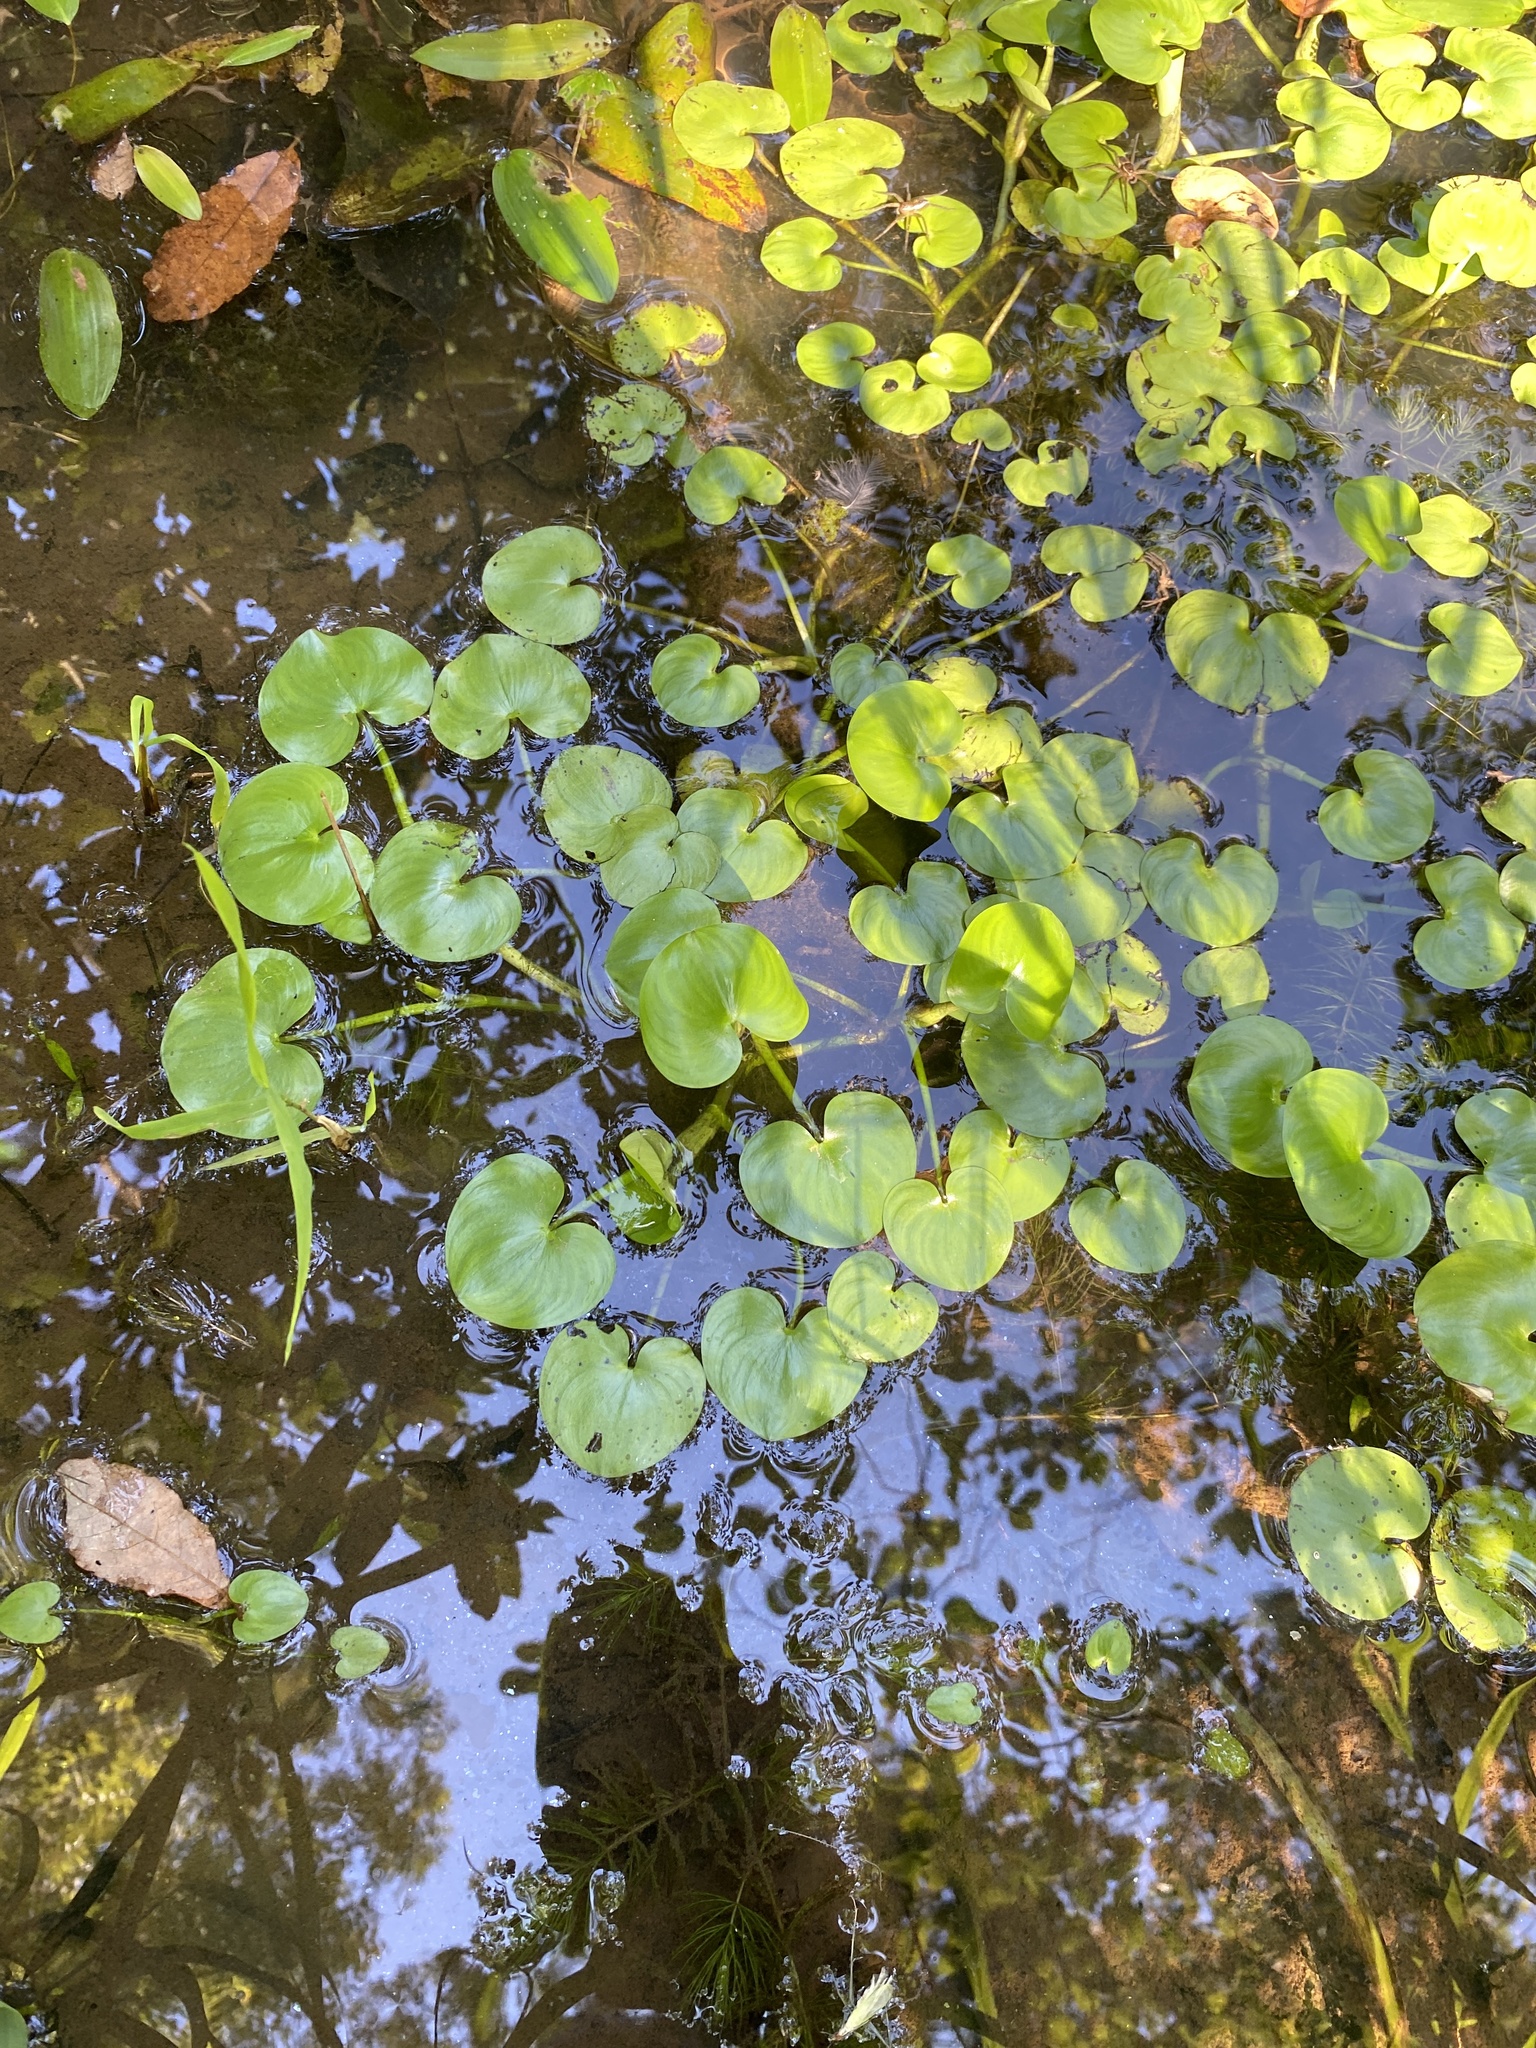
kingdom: Plantae
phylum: Tracheophyta
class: Liliopsida
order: Commelinales
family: Pontederiaceae
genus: Heteranthera
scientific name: Heteranthera reniformis
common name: Kidneyleaf mudplantain
